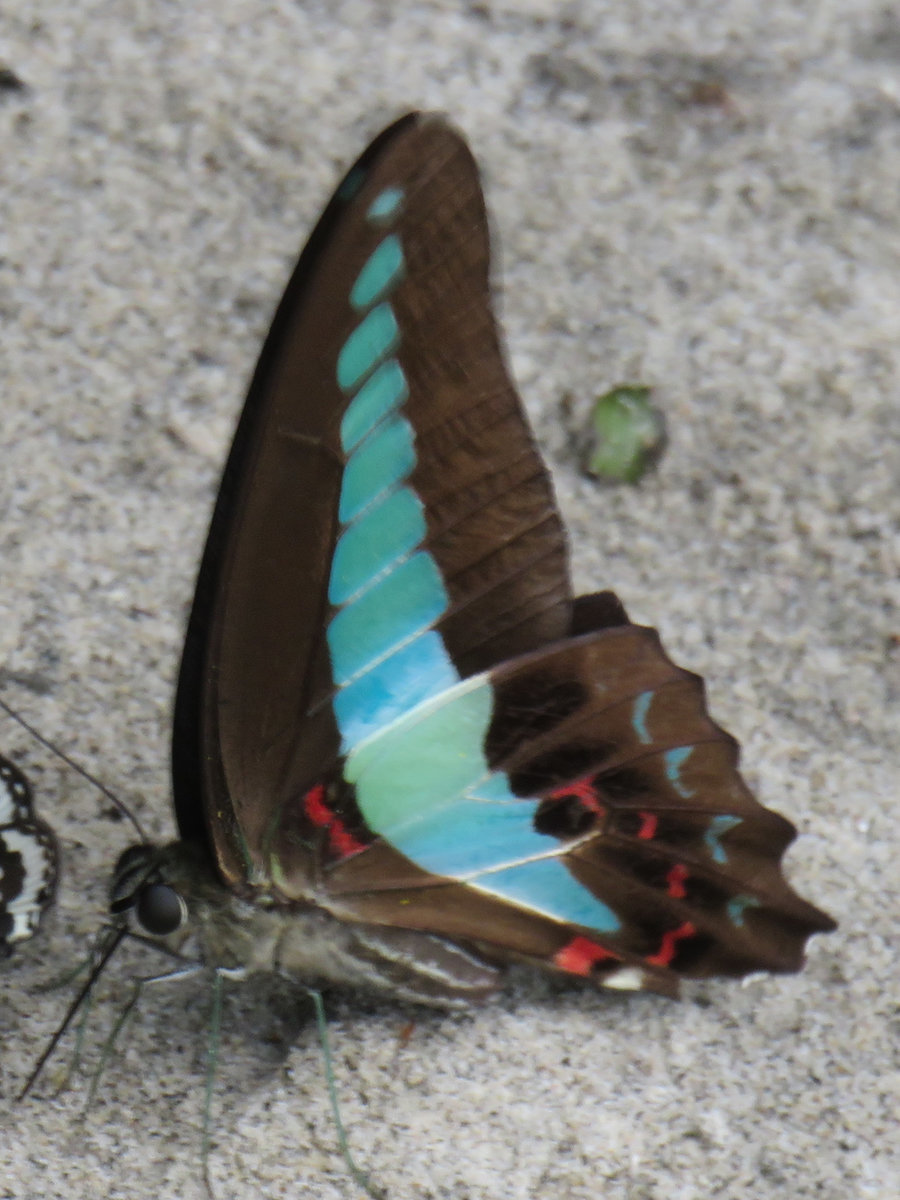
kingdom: Fungi
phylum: Ascomycota
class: Sordariomycetes
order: Microascales
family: Microascaceae
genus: Graphium
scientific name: Graphium sarpedon
